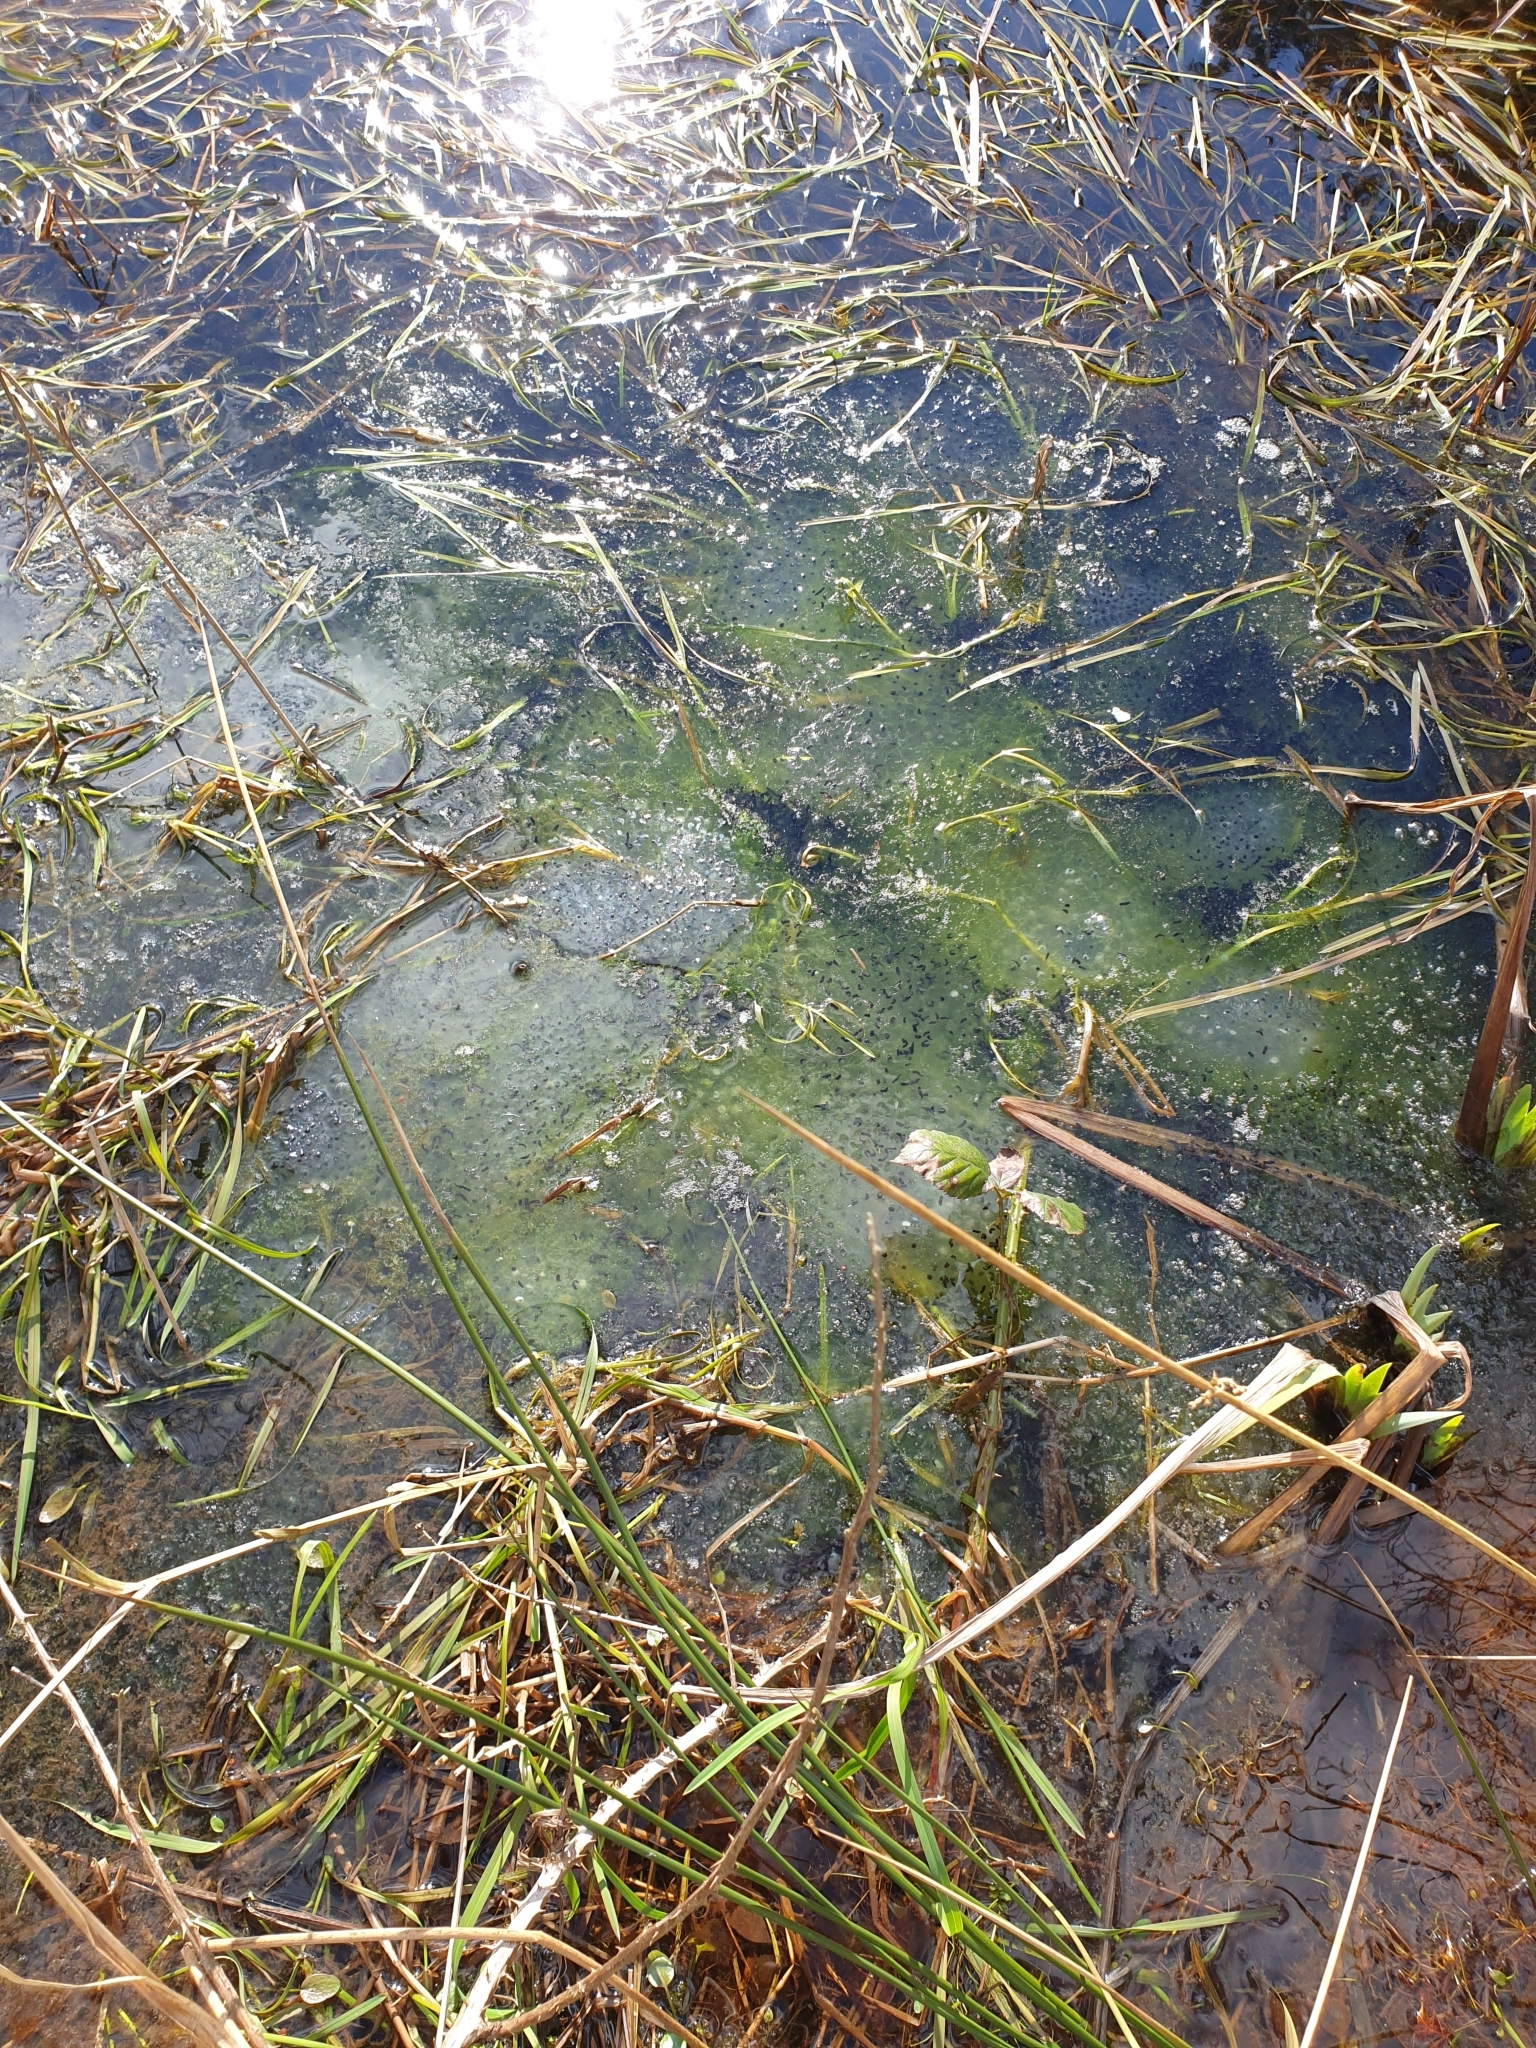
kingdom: Animalia
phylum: Chordata
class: Amphibia
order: Anura
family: Ranidae
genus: Rana
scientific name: Rana temporaria
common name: Common frog
